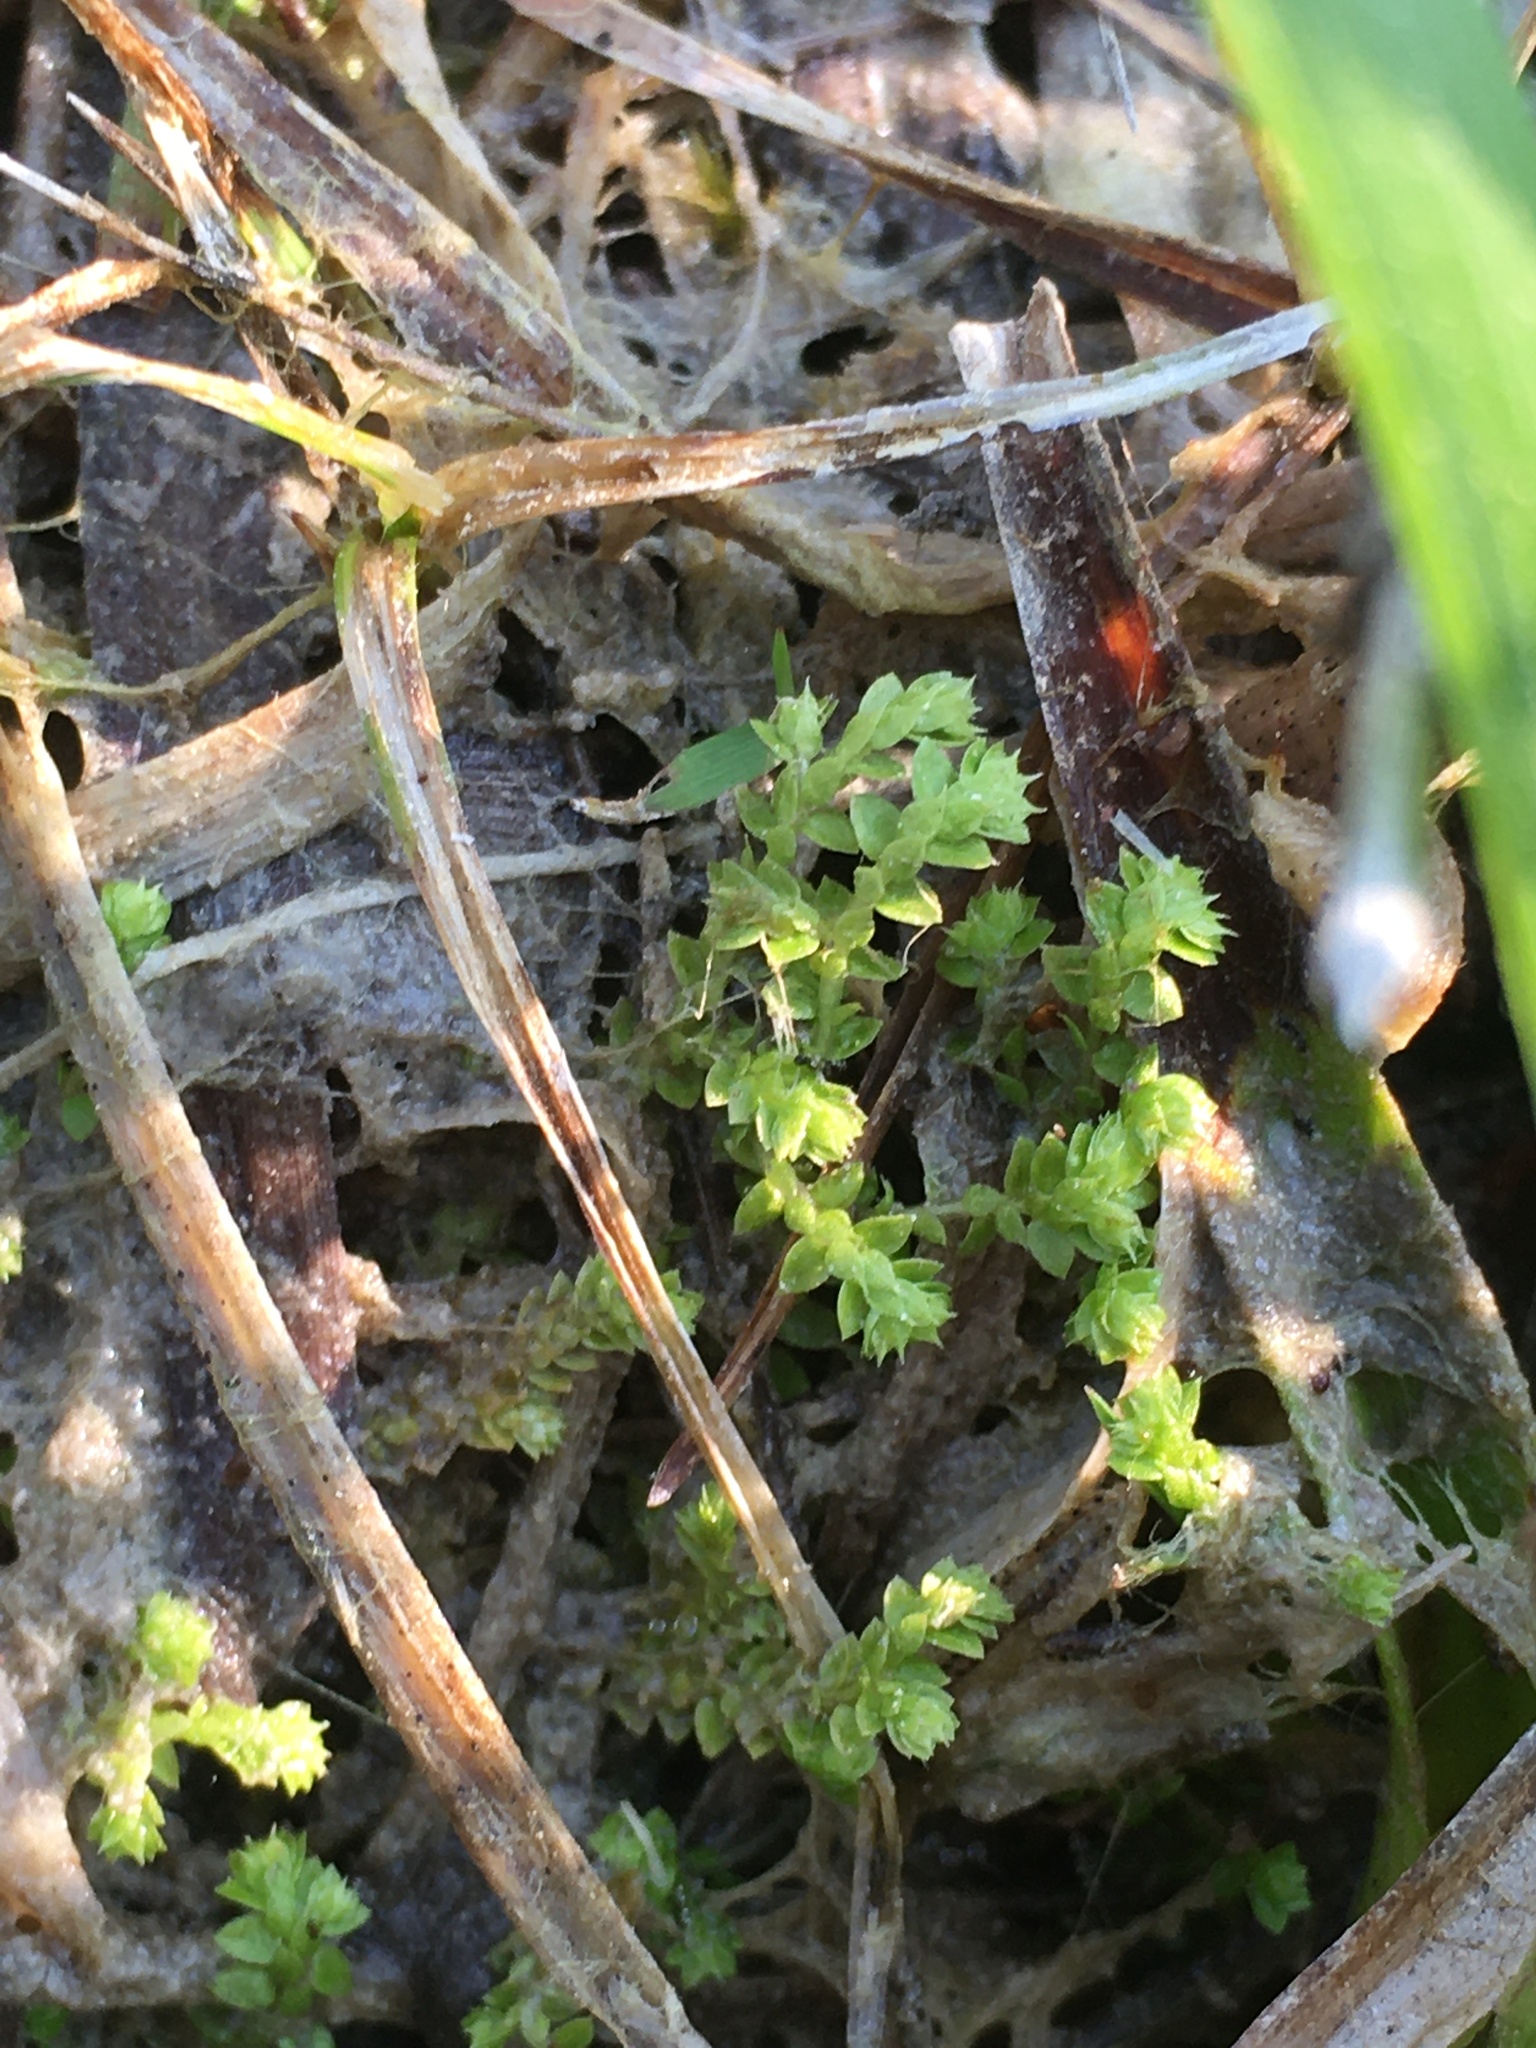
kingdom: Plantae
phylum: Tracheophyta
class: Lycopodiopsida
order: Selaginellales
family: Selaginellaceae
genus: Selaginella
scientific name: Selaginella eclipes
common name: Buck's meadow spikemoss
